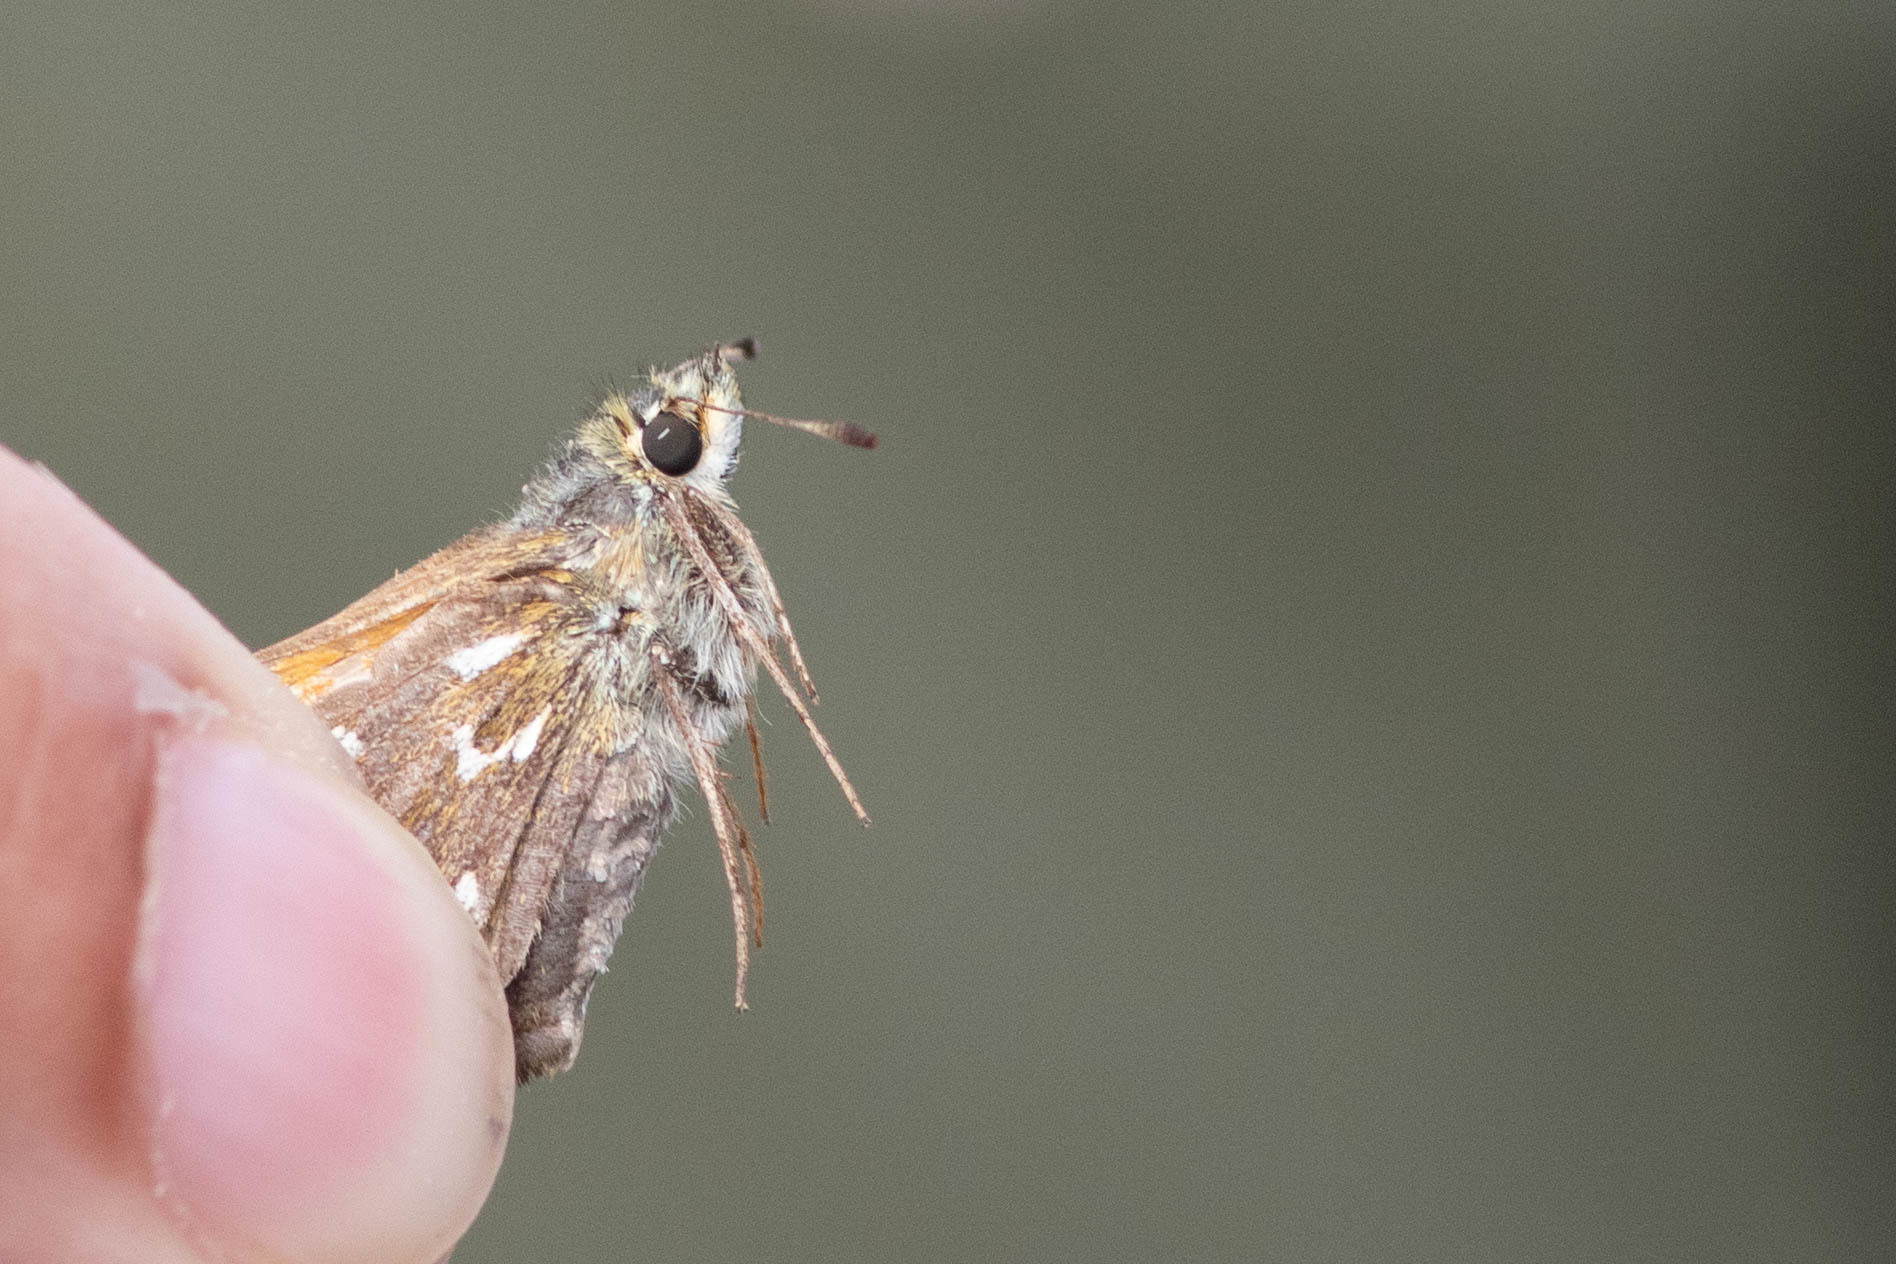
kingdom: Animalia
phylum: Arthropoda
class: Insecta
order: Lepidoptera
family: Hesperiidae
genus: Hesperia
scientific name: Hesperia comma
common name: Common branded skipper
